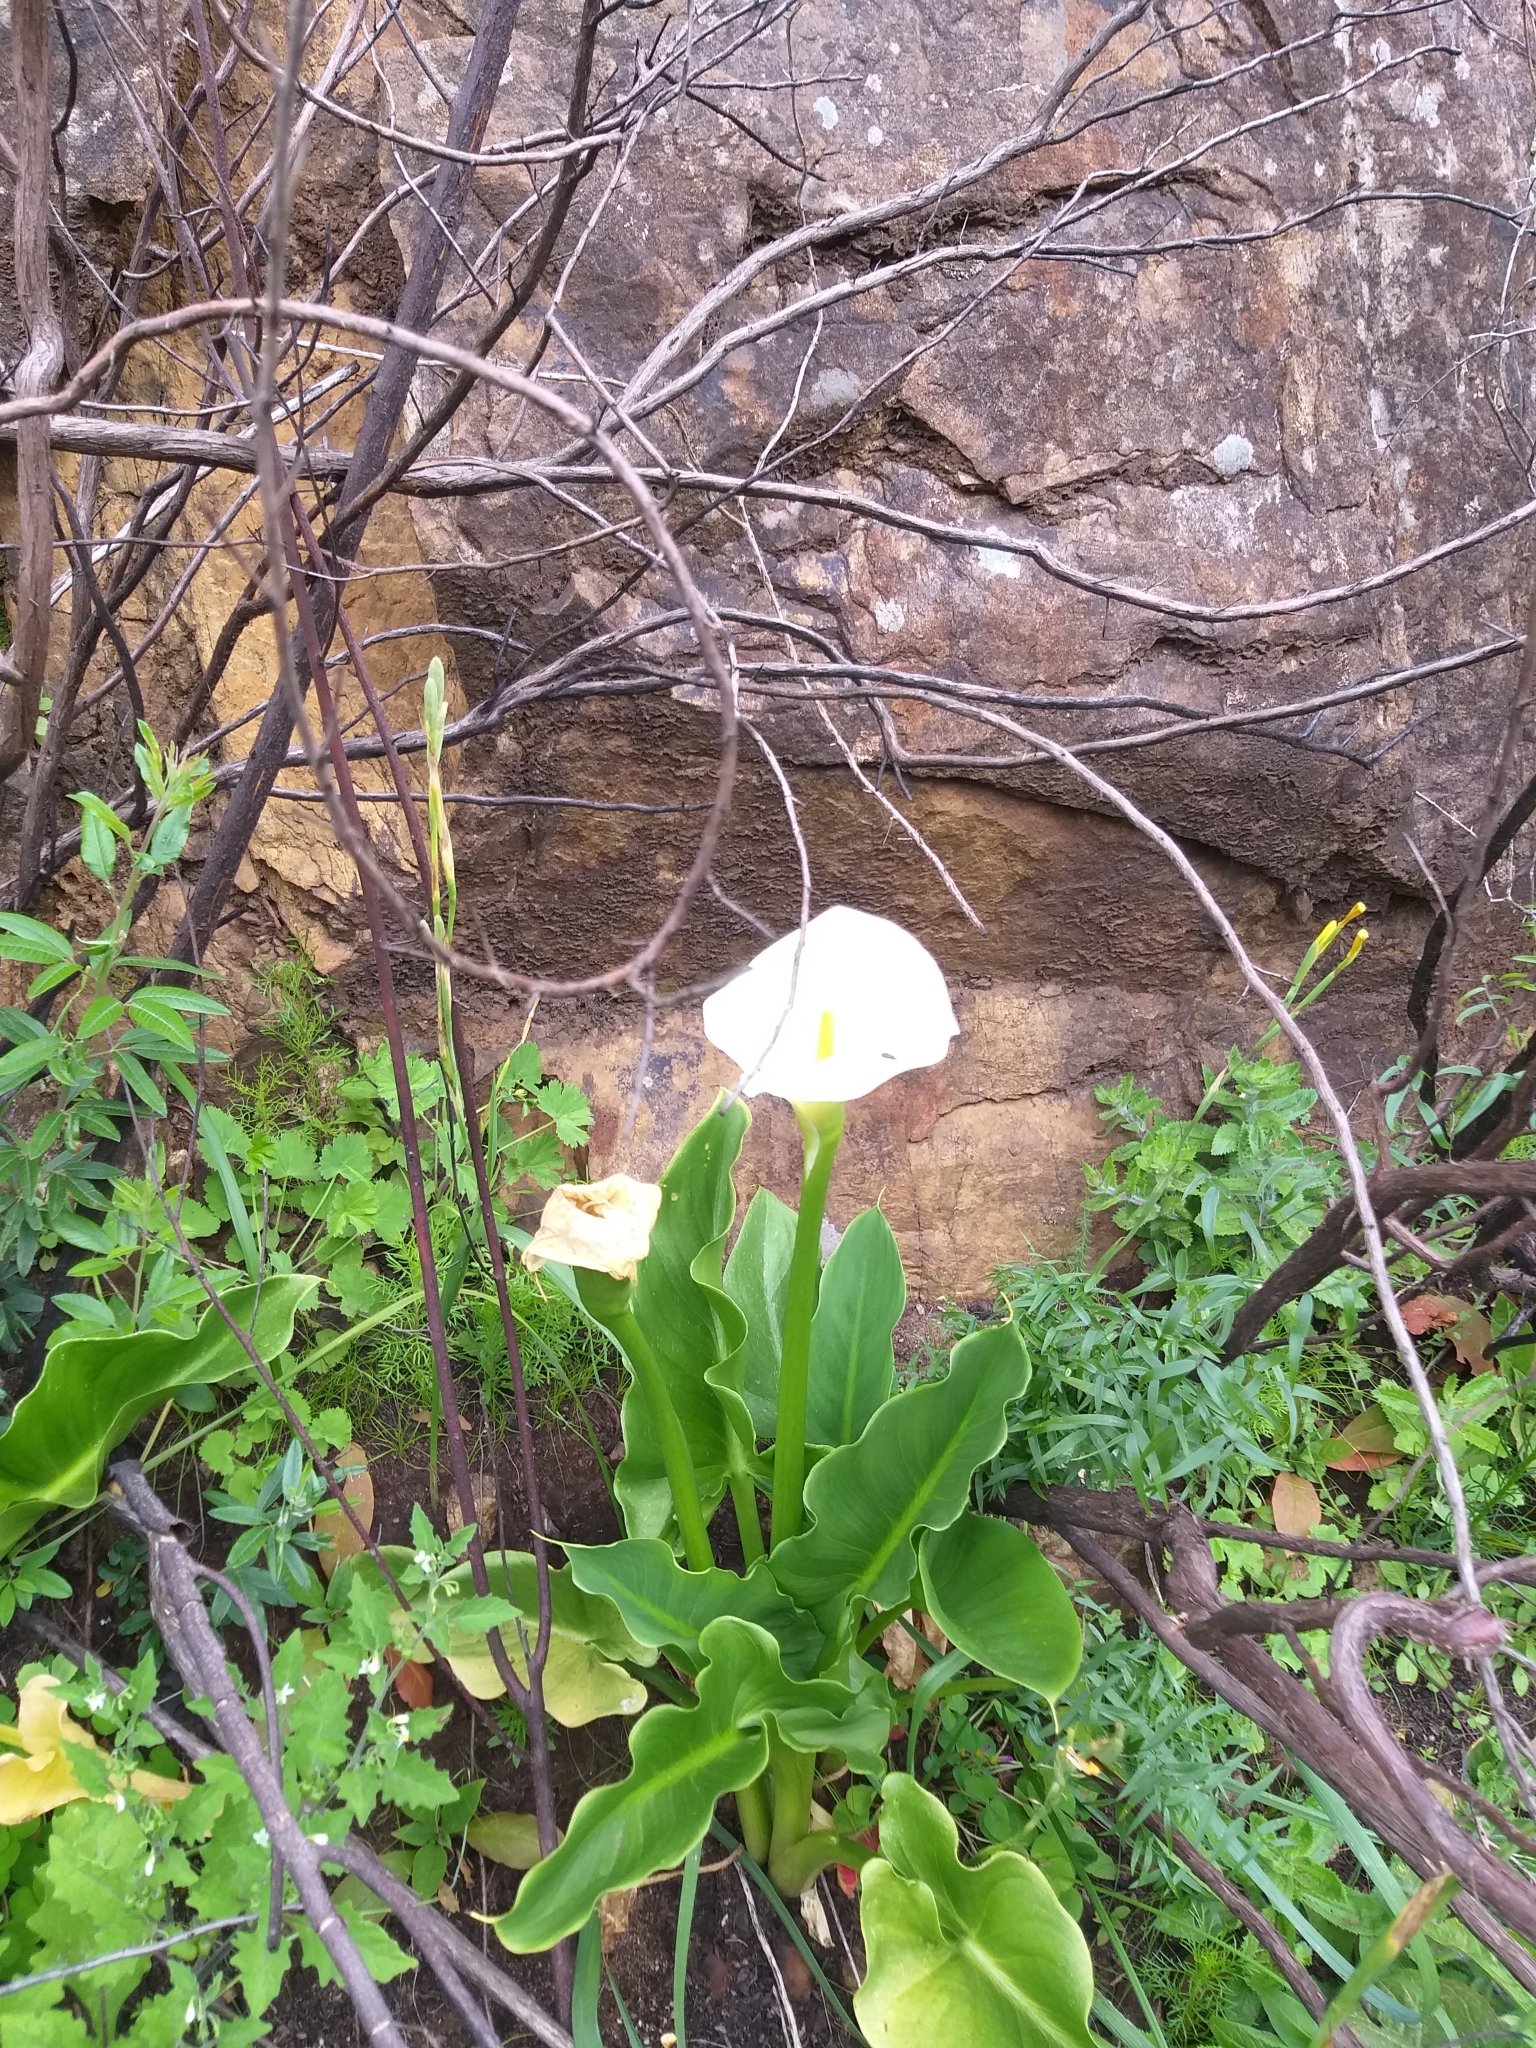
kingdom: Plantae
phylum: Tracheophyta
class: Liliopsida
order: Alismatales
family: Araceae
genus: Zantedeschia
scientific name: Zantedeschia aethiopica
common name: Altar-lily
